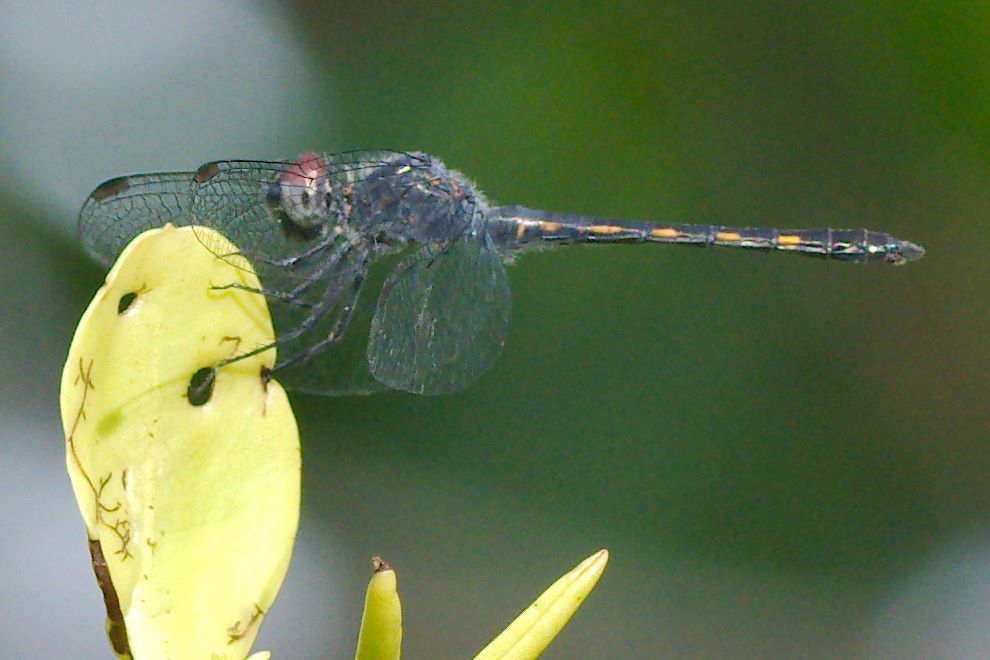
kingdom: Animalia
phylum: Arthropoda
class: Insecta
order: Odonata
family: Libellulidae
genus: Erythrodiplax
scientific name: Erythrodiplax berenice
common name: Seaside dragonlet
